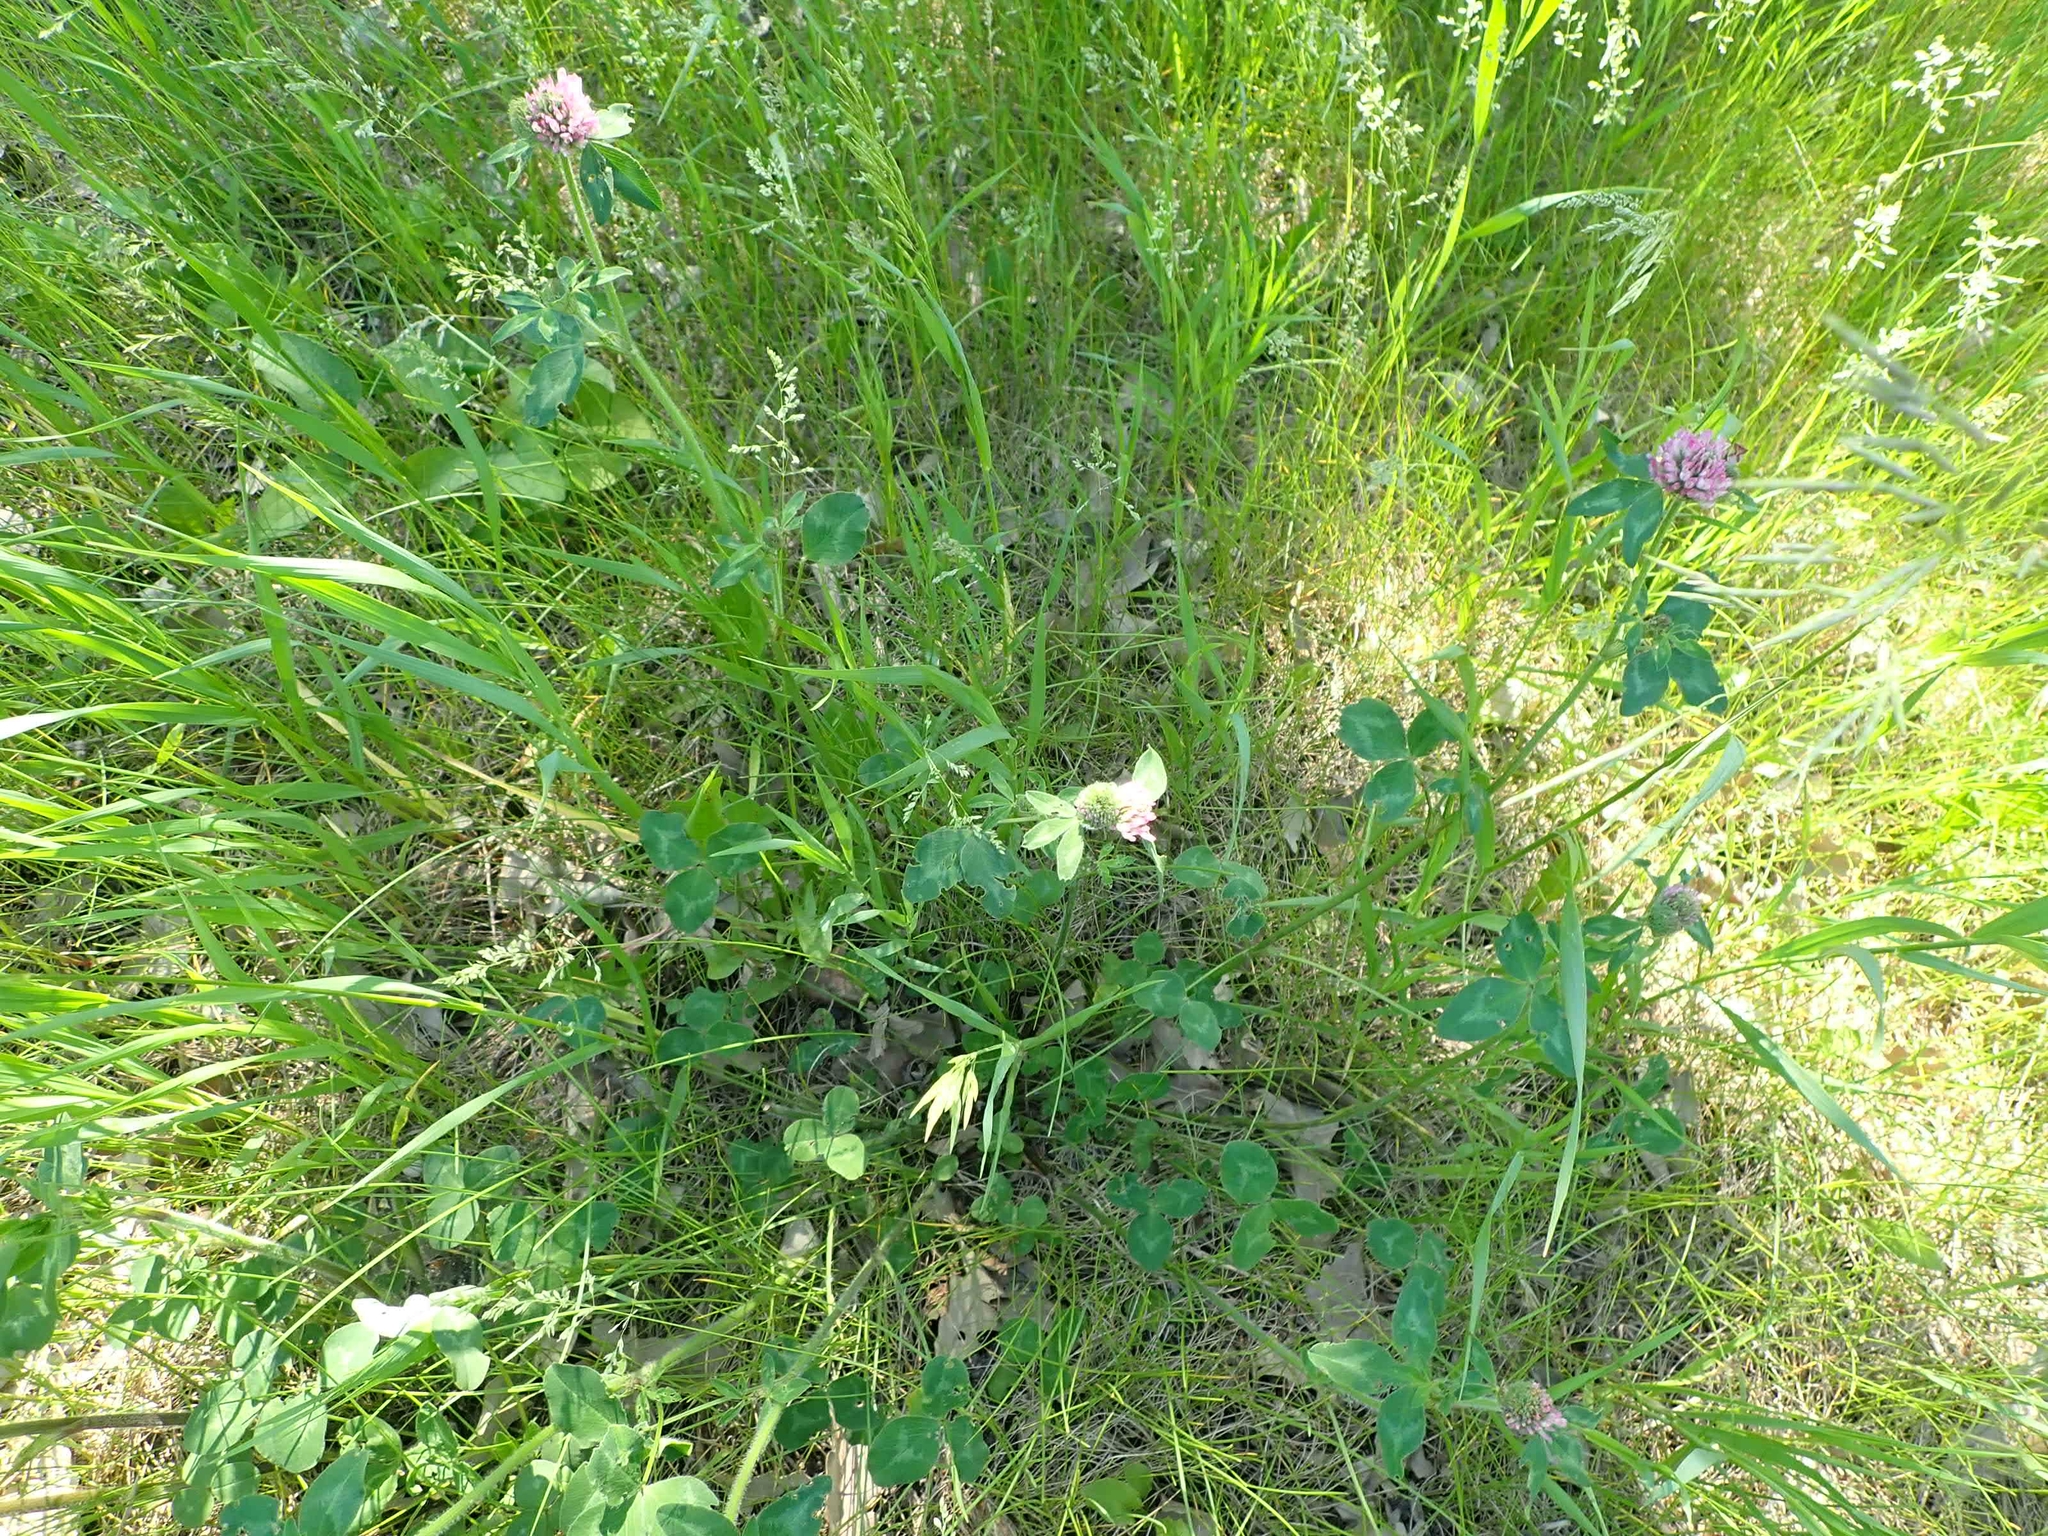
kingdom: Plantae
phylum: Tracheophyta
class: Magnoliopsida
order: Fabales
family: Fabaceae
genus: Trifolium
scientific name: Trifolium pratense
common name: Red clover
